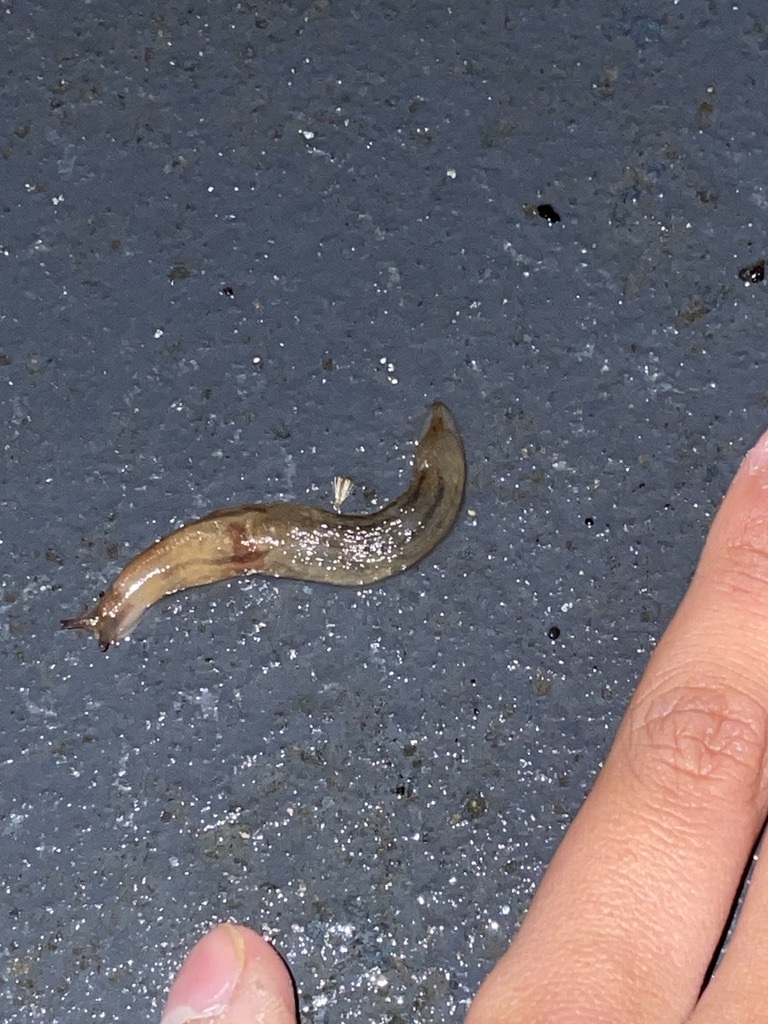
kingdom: Animalia
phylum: Mollusca
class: Gastropoda
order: Stylommatophora
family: Limacidae
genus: Ambigolimax
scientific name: Ambigolimax
